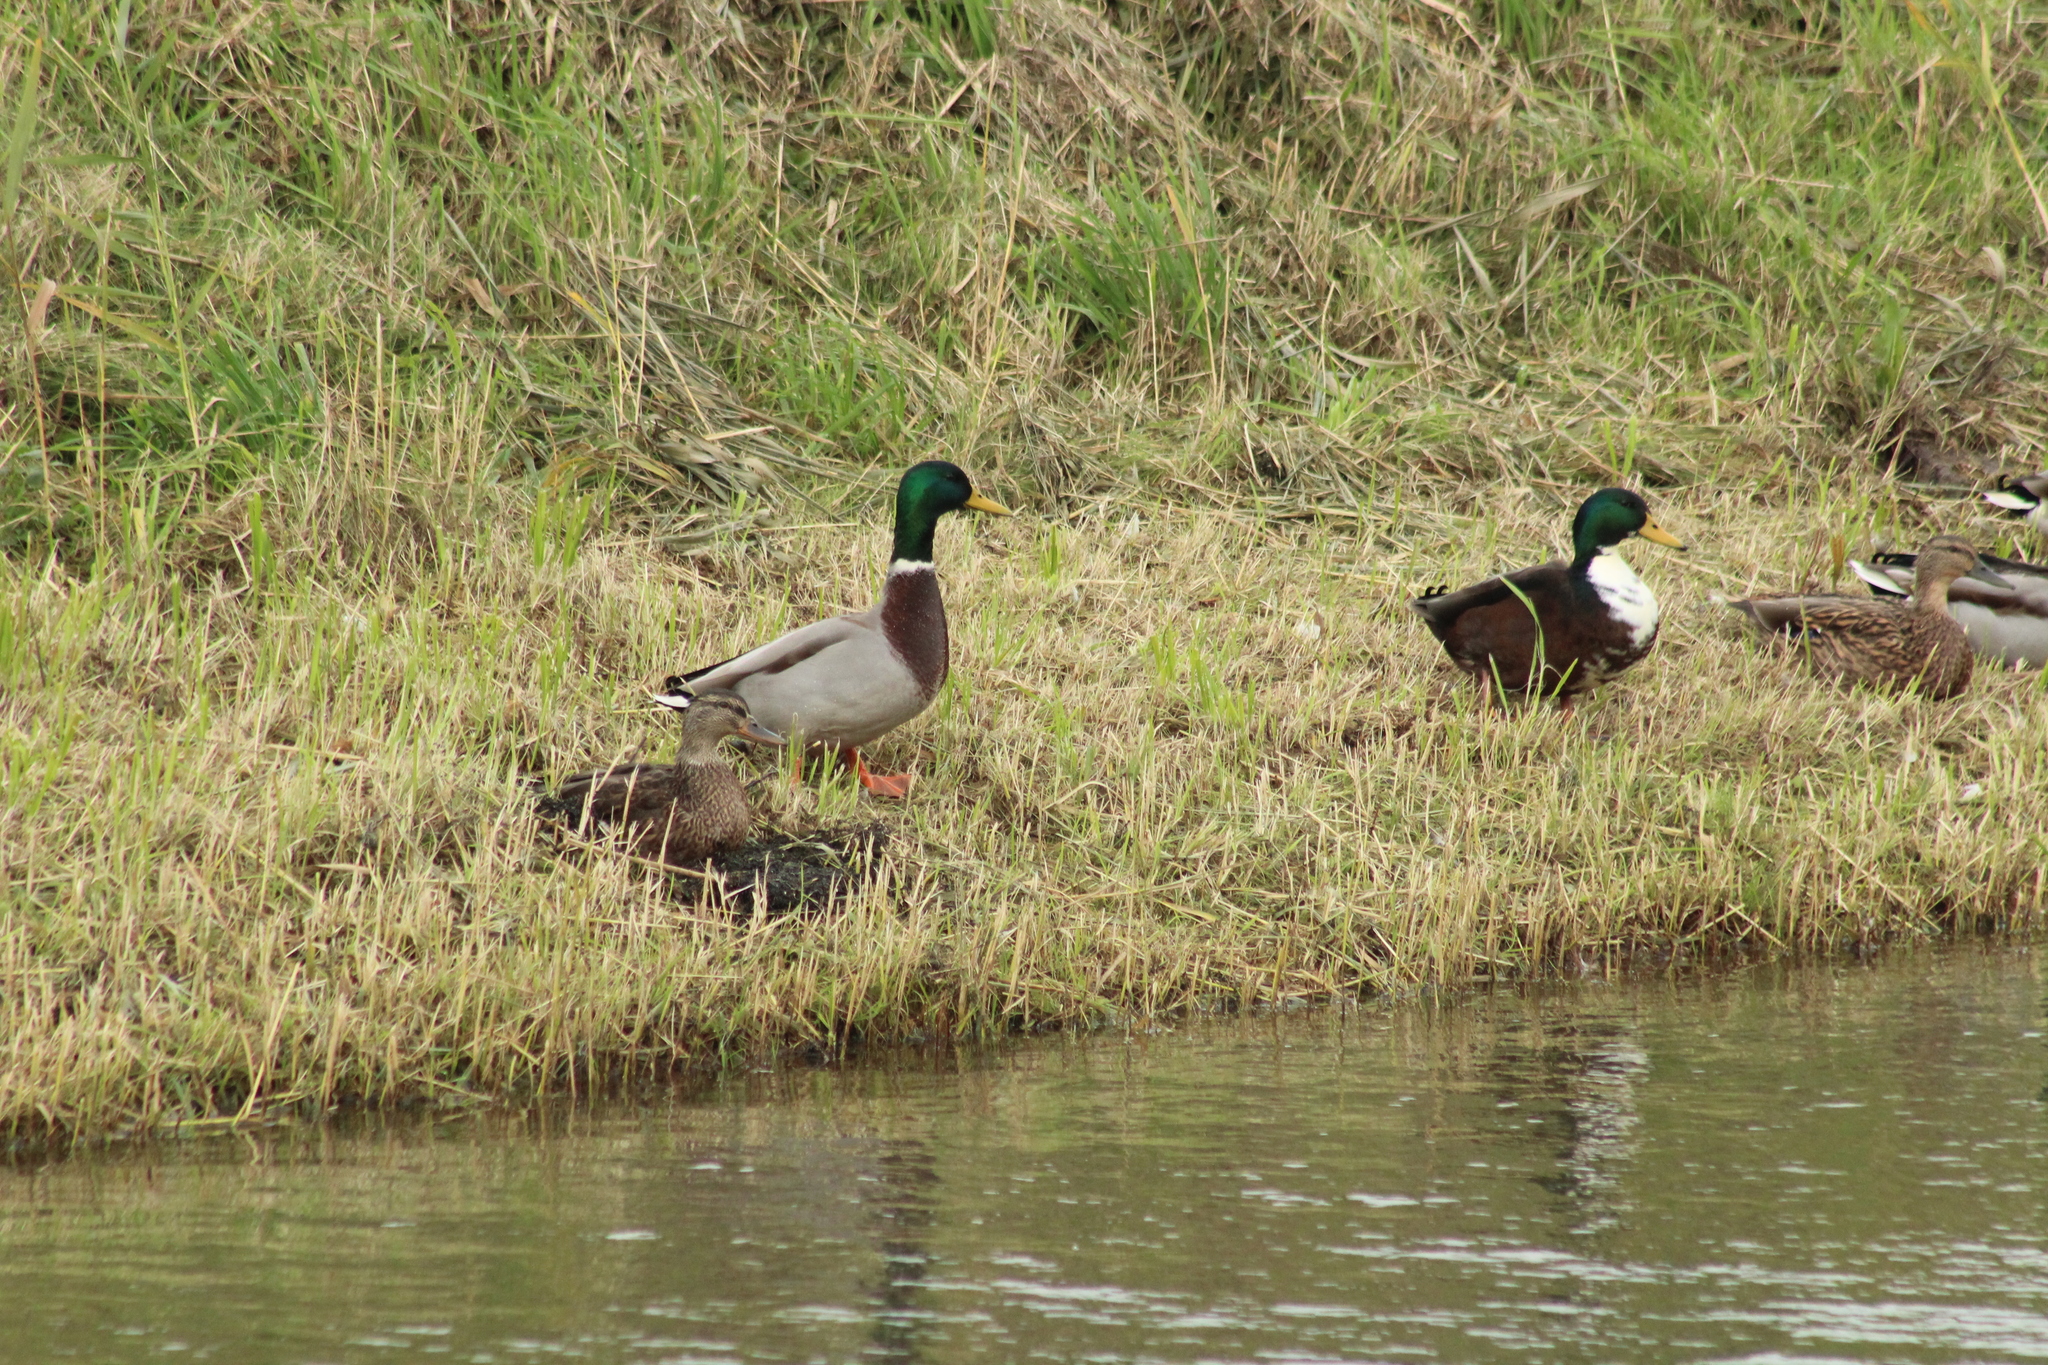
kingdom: Animalia
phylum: Chordata
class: Aves
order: Anseriformes
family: Anatidae
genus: Anas
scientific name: Anas platyrhynchos
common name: Mallard
